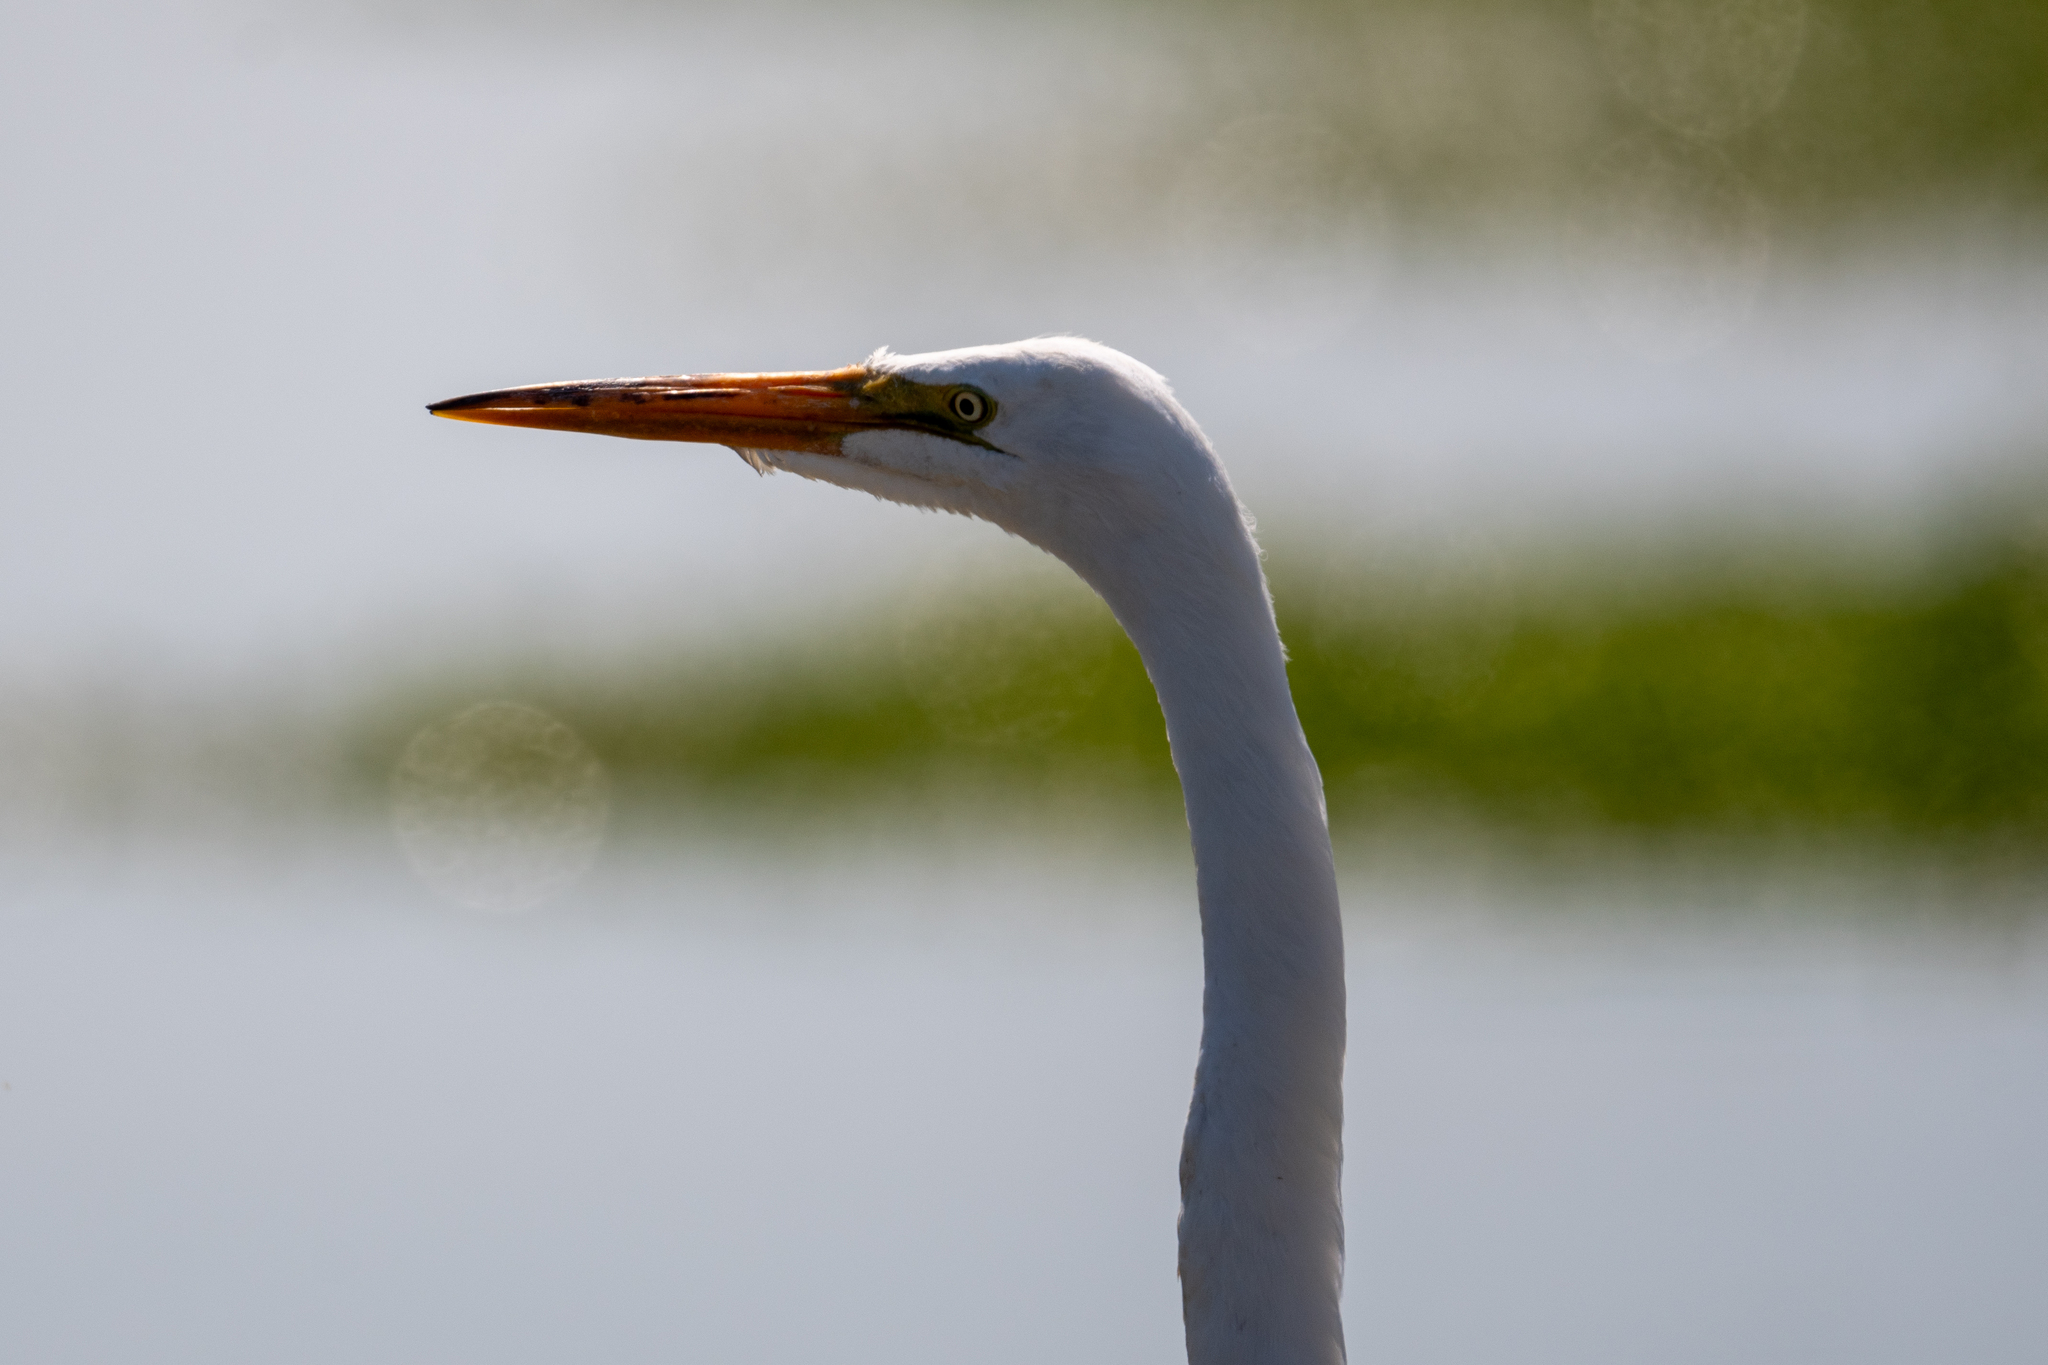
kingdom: Animalia
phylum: Chordata
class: Aves
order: Pelecaniformes
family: Ardeidae
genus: Ardea
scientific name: Ardea alba
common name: Great egret
